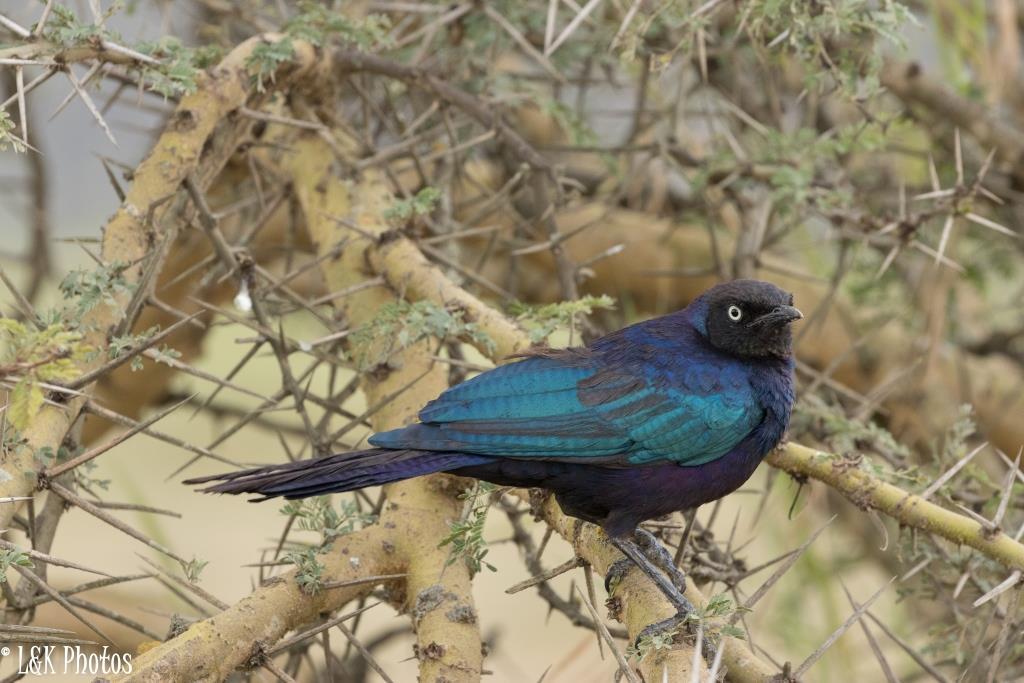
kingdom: Animalia
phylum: Chordata
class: Aves
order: Passeriformes
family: Sturnidae
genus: Lamprotornis
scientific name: Lamprotornis purpuroptera
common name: Rüppell's starling
